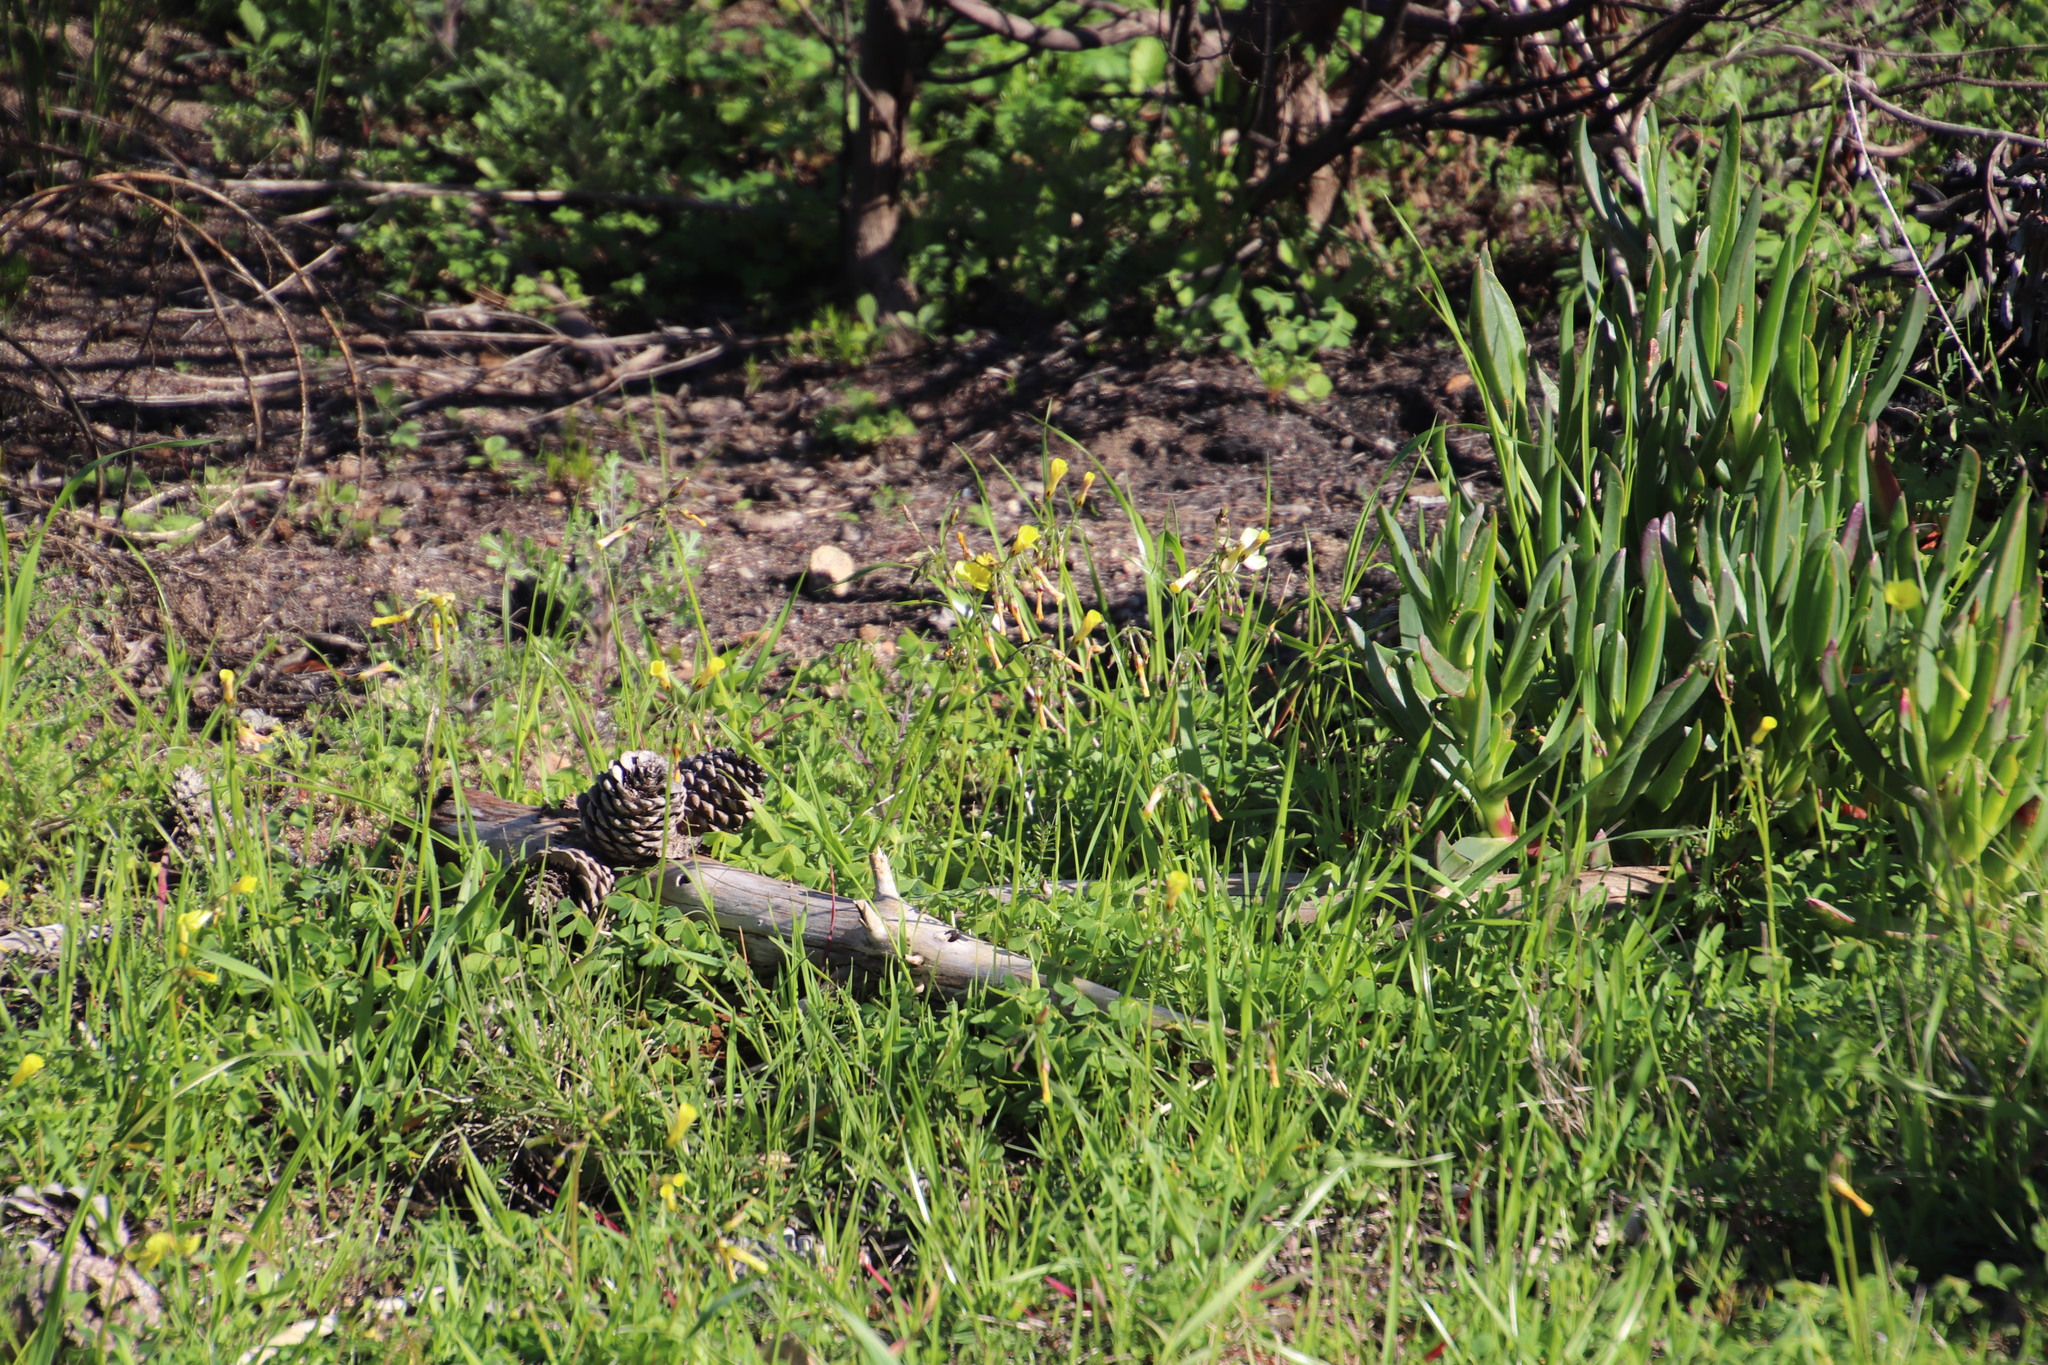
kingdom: Plantae
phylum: Tracheophyta
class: Magnoliopsida
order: Oxalidales
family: Oxalidaceae
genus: Oxalis
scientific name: Oxalis pes-caprae
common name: Bermuda-buttercup
